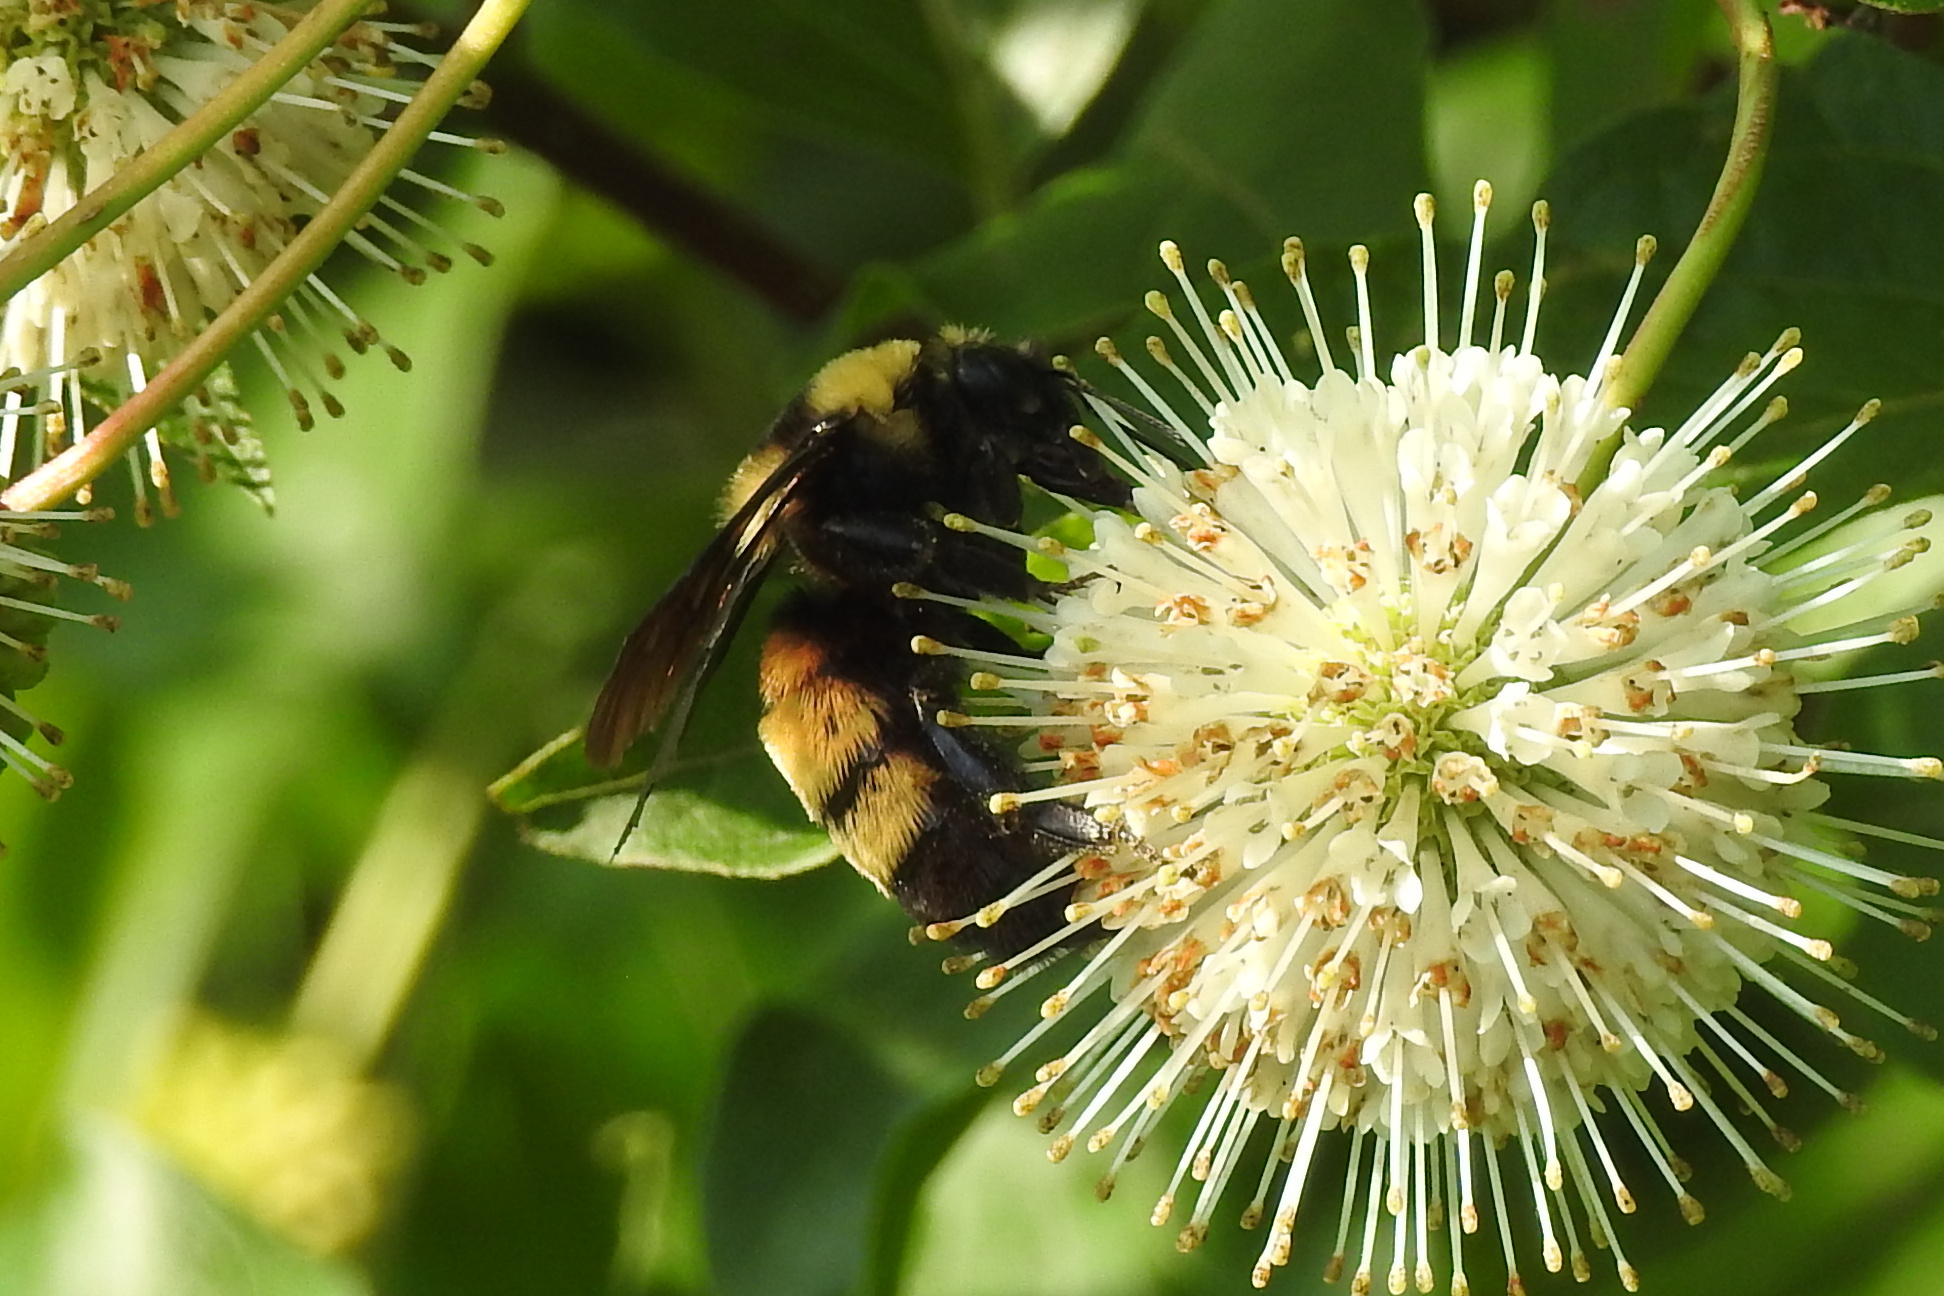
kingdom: Animalia
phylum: Arthropoda
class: Insecta
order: Hymenoptera
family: Apidae
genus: Bombus
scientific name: Bombus auricomus
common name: Black and gold bumble bee
